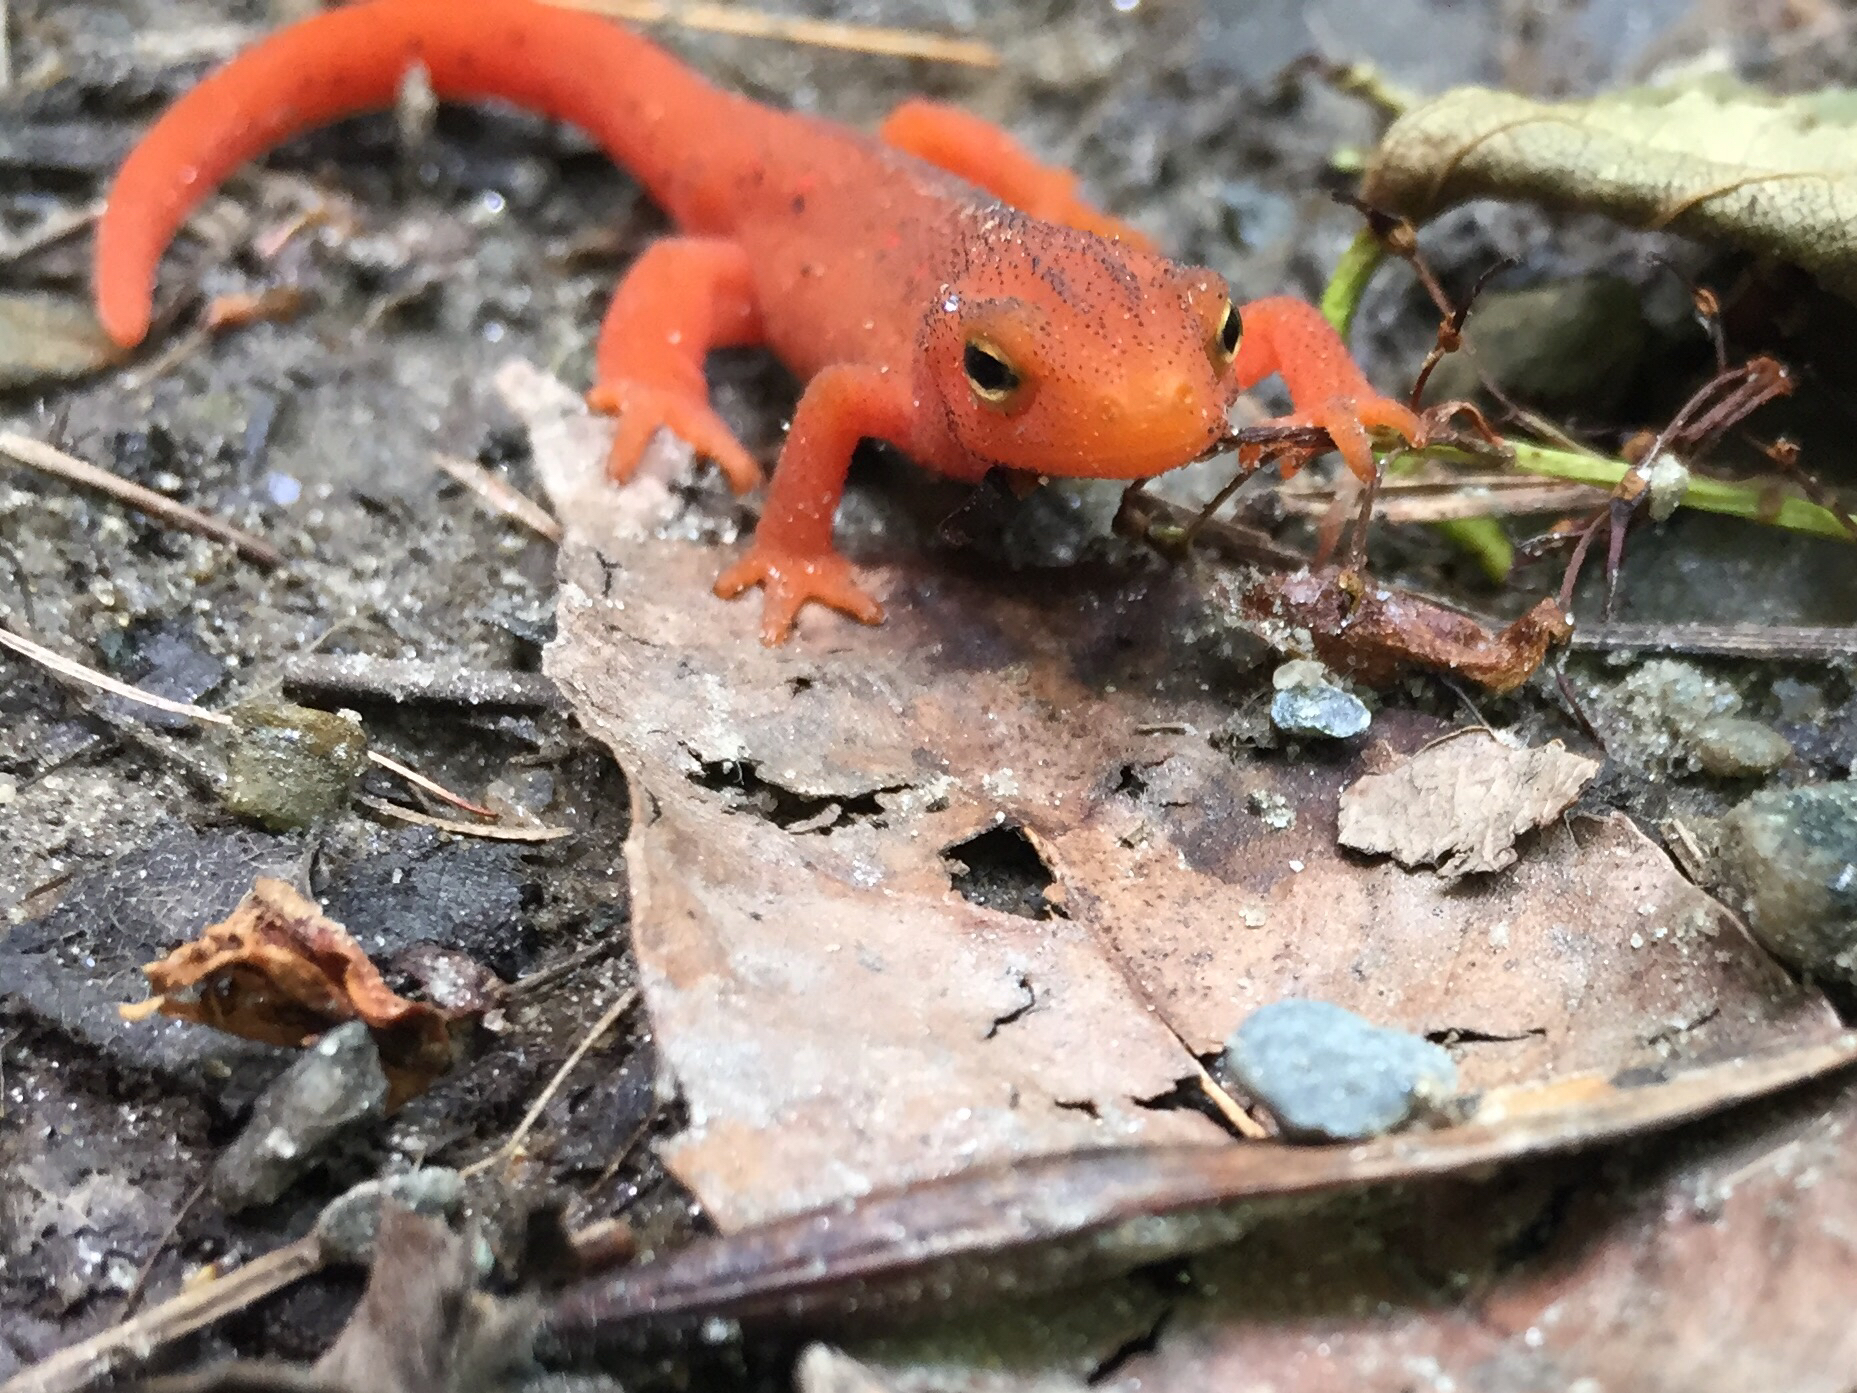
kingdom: Animalia
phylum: Chordata
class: Amphibia
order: Caudata
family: Salamandridae
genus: Notophthalmus
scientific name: Notophthalmus viridescens
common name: Eastern newt
